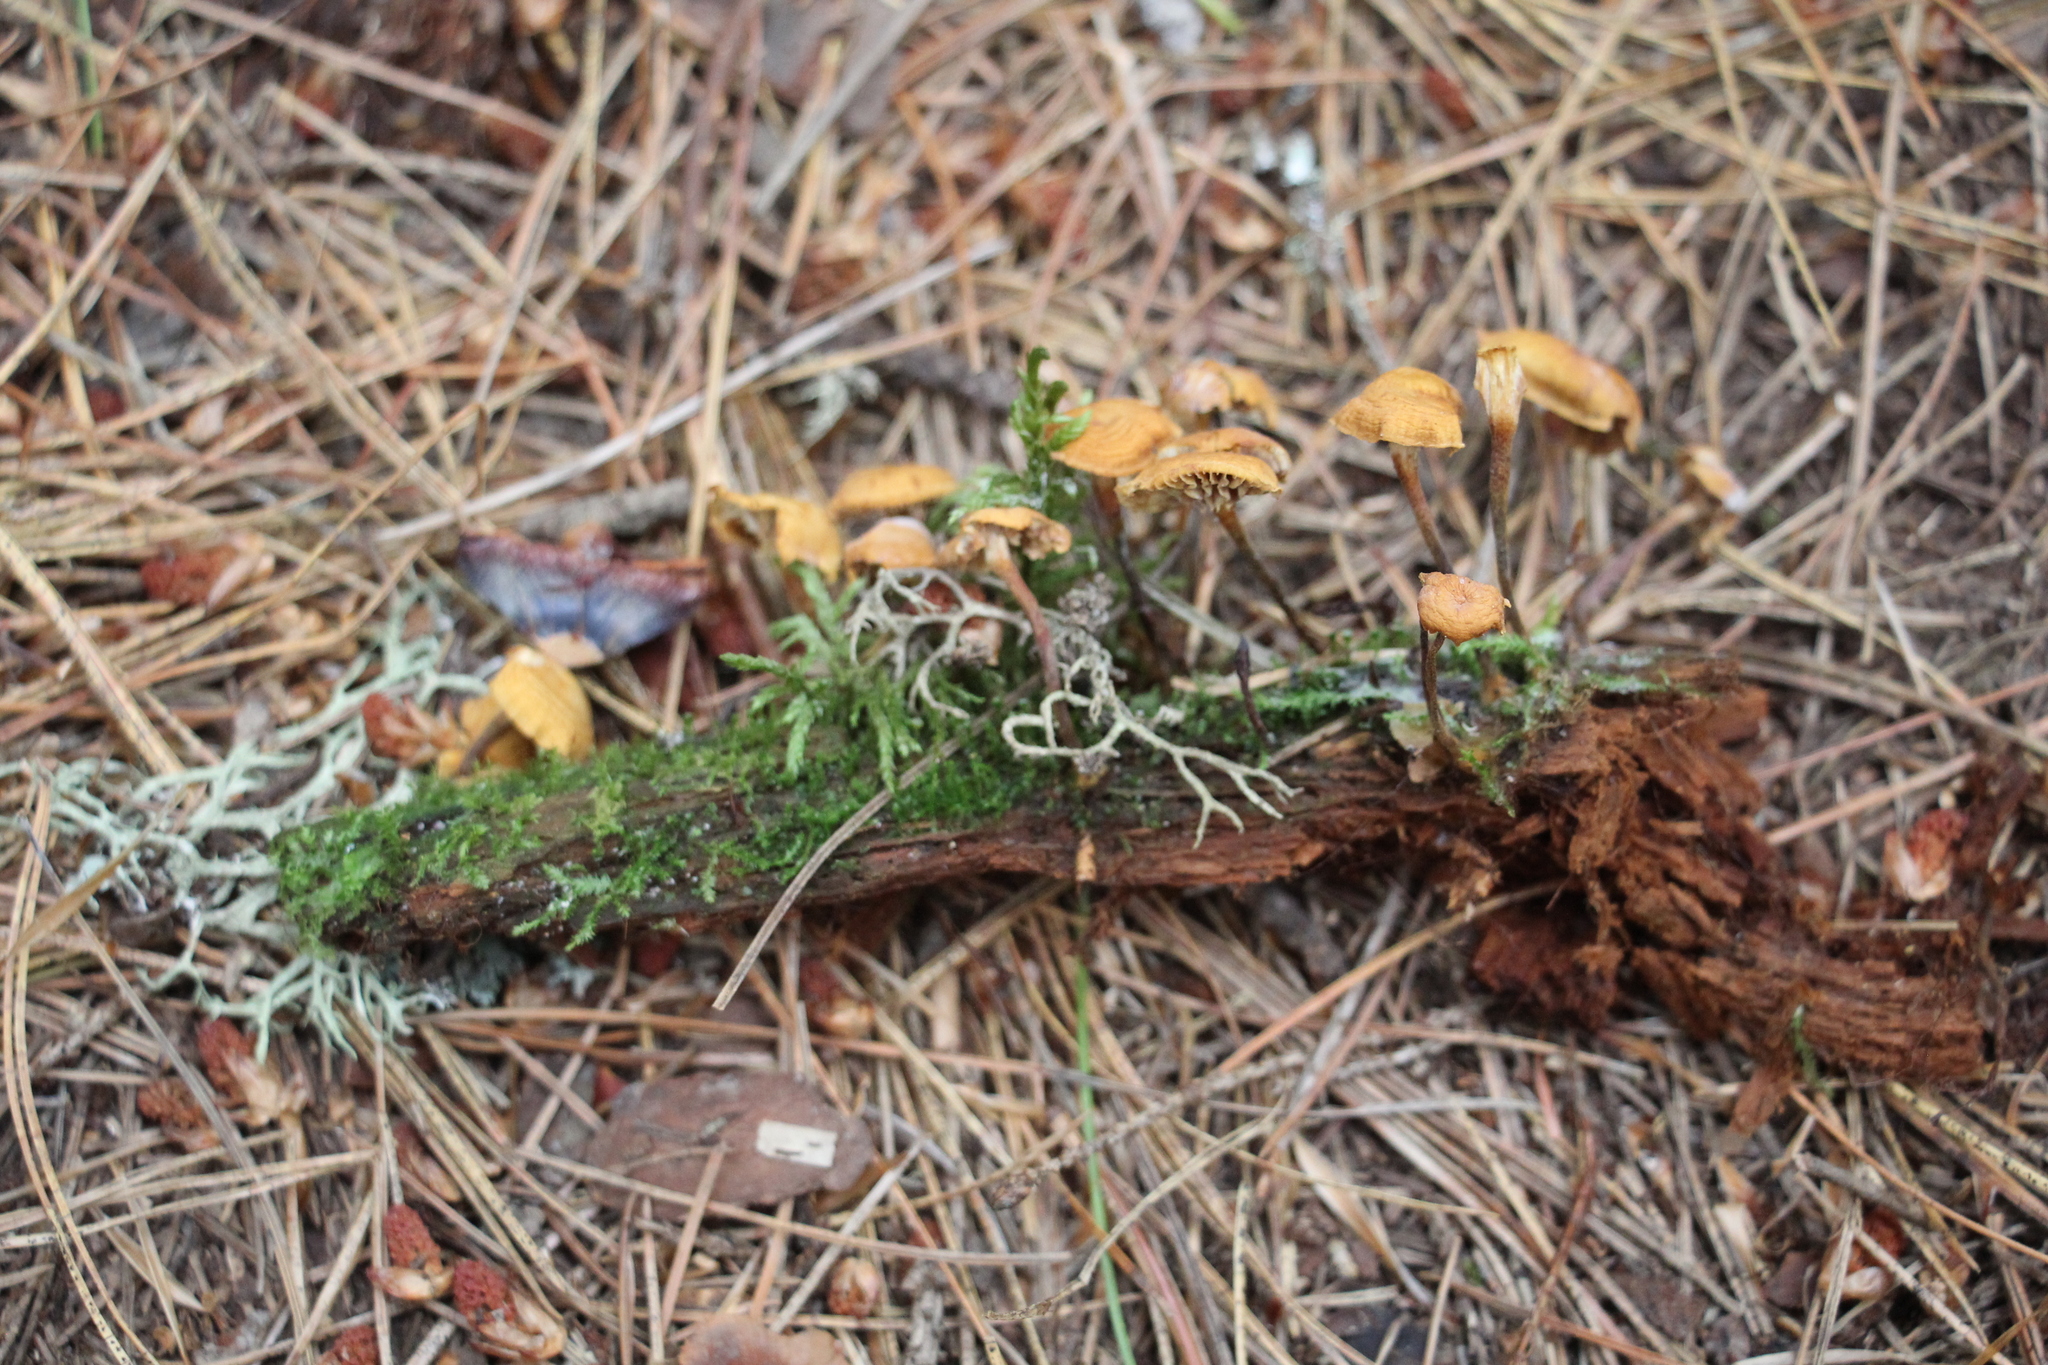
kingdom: Fungi
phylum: Basidiomycota
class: Agaricomycetes
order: Agaricales
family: Mycenaceae
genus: Xeromphalina
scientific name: Xeromphalina campanella
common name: Pinewood gingertail
